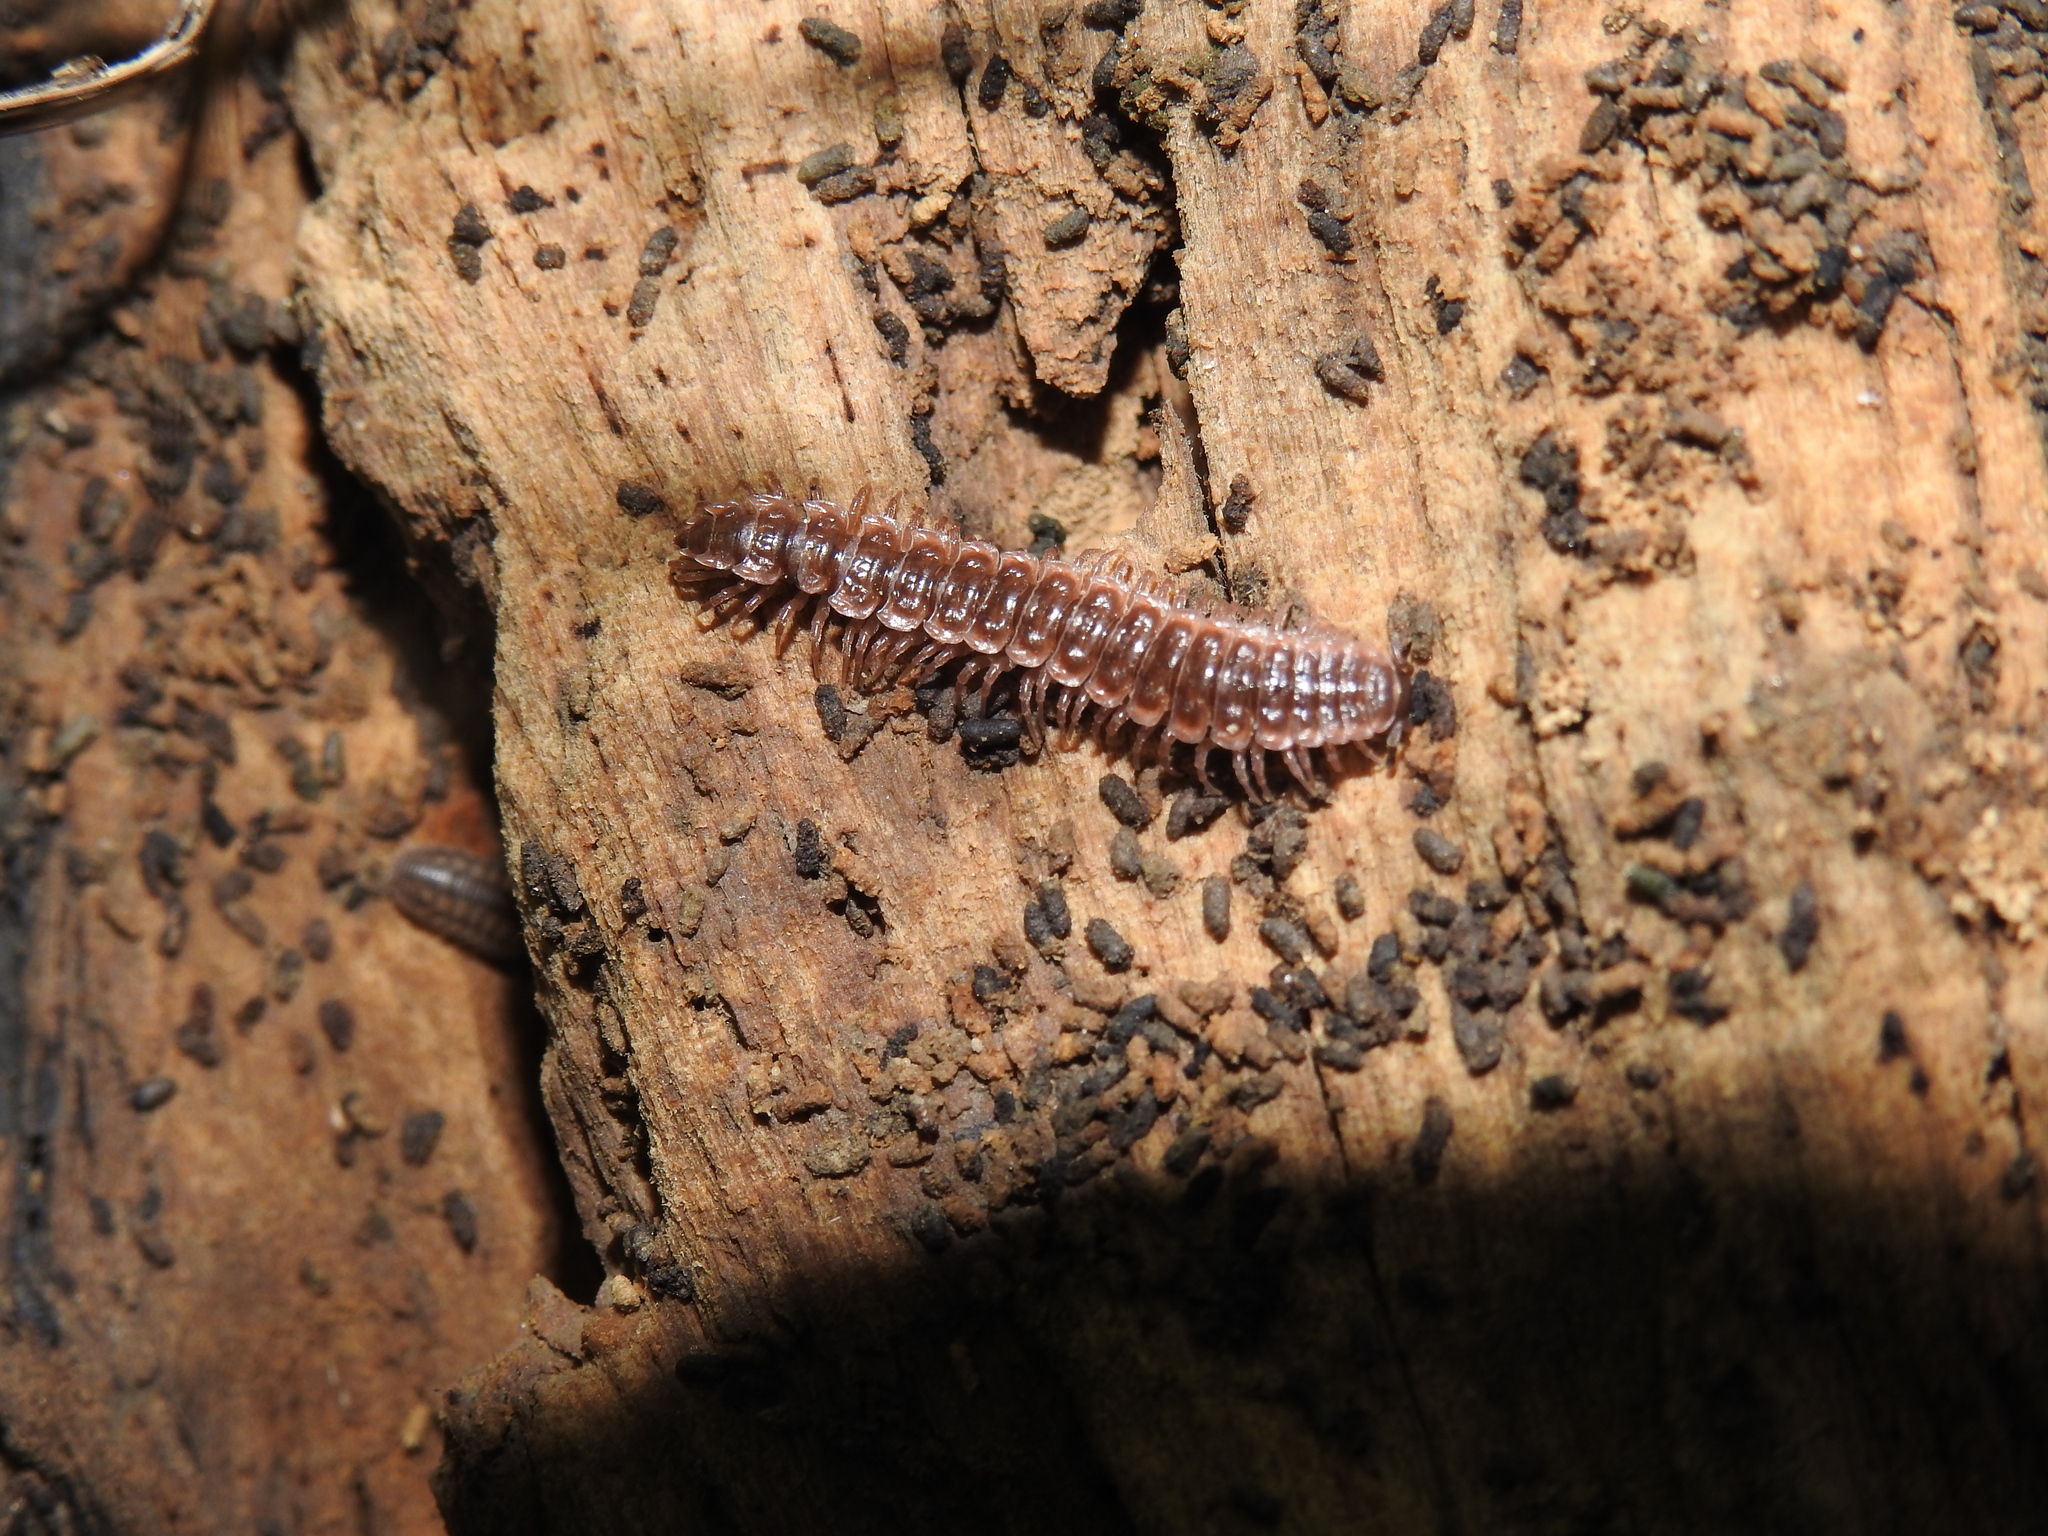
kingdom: Animalia
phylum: Arthropoda
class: Diplopoda
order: Polydesmida
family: Polydesmidae
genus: Pseudopolydesmus
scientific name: Pseudopolydesmus serratus
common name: Common pink flat-back millipede
